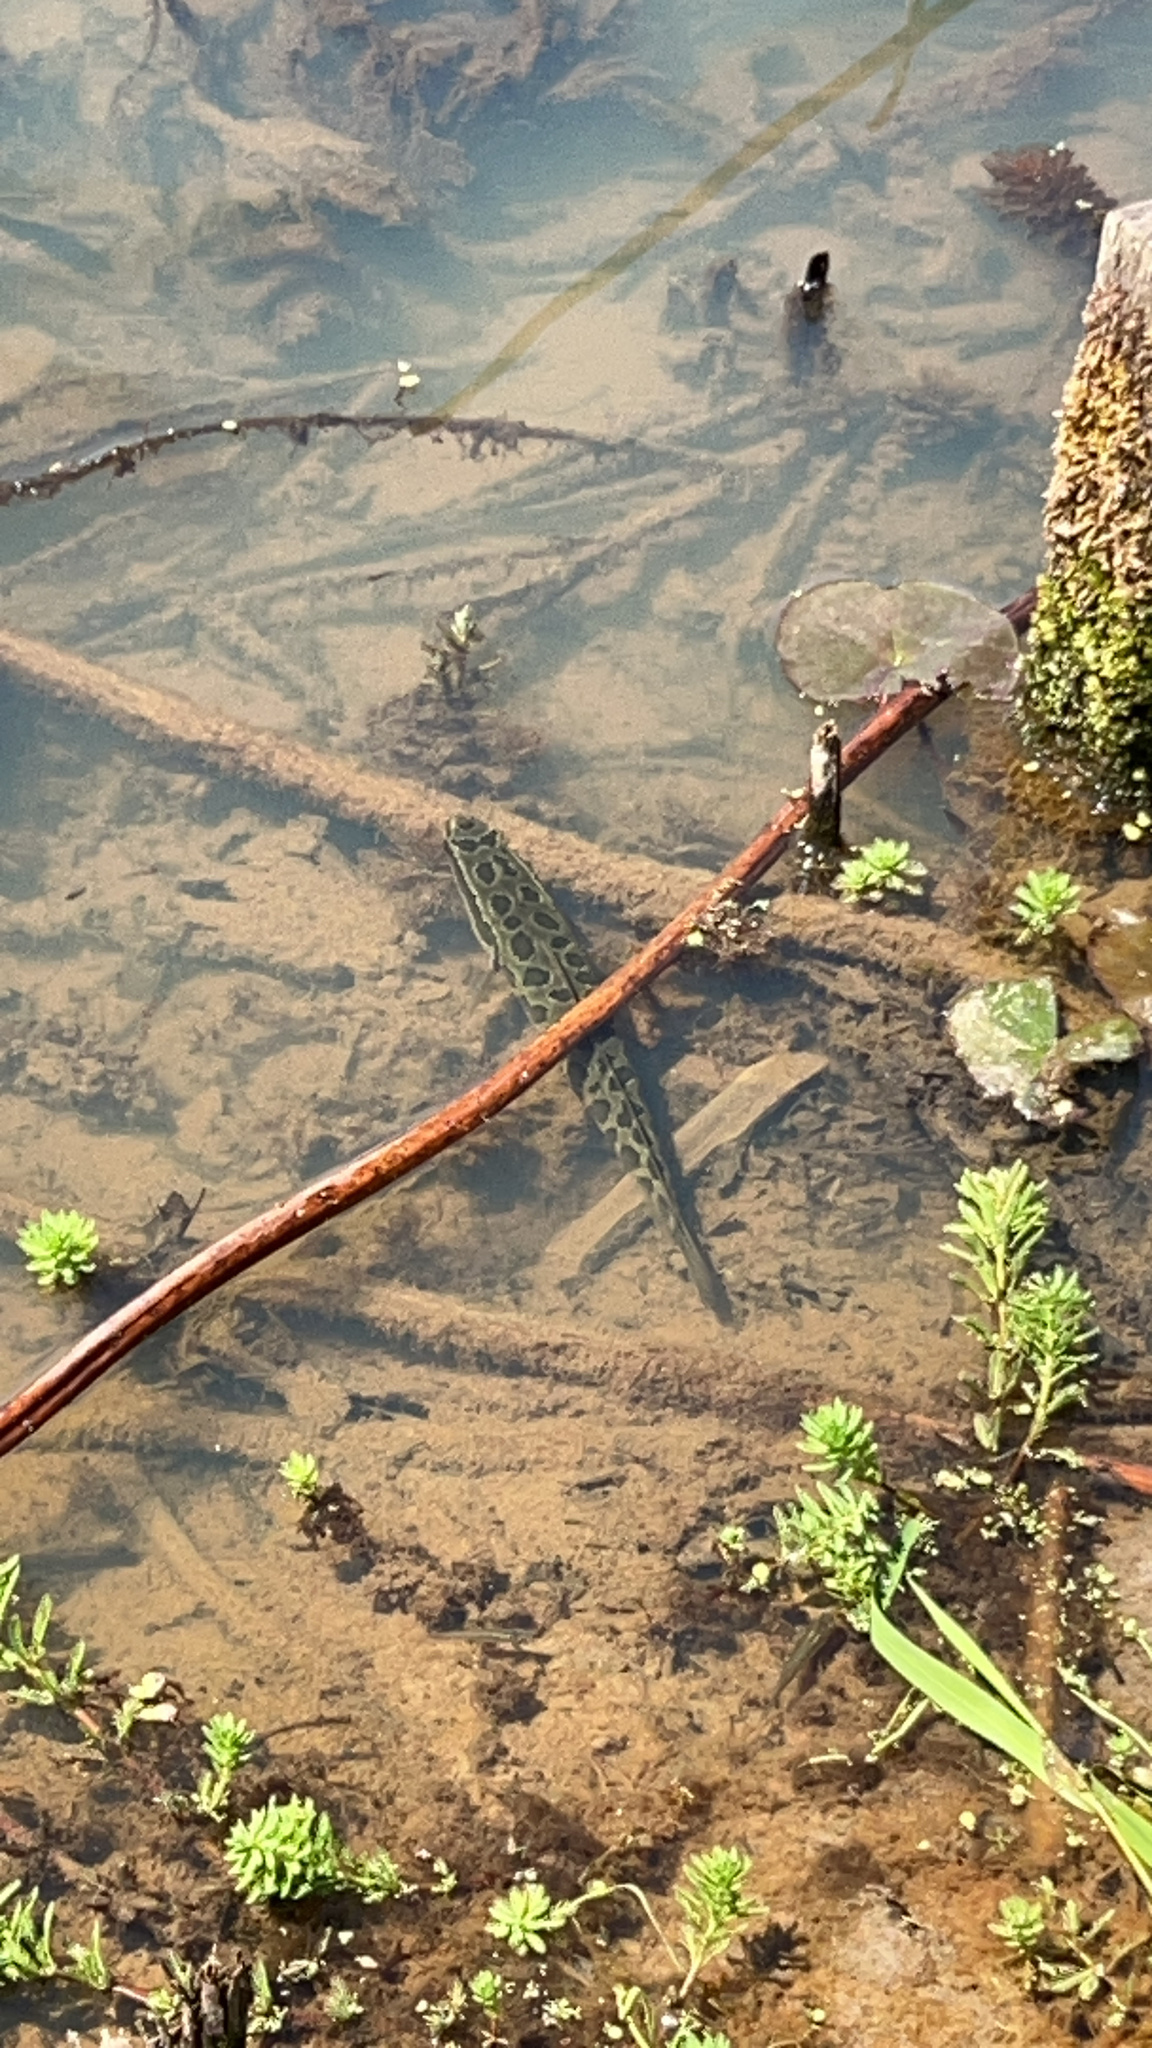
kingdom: Animalia
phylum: Chordata
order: Perciformes
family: Channidae
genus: Channa
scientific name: Channa argus
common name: Northern snakehead
